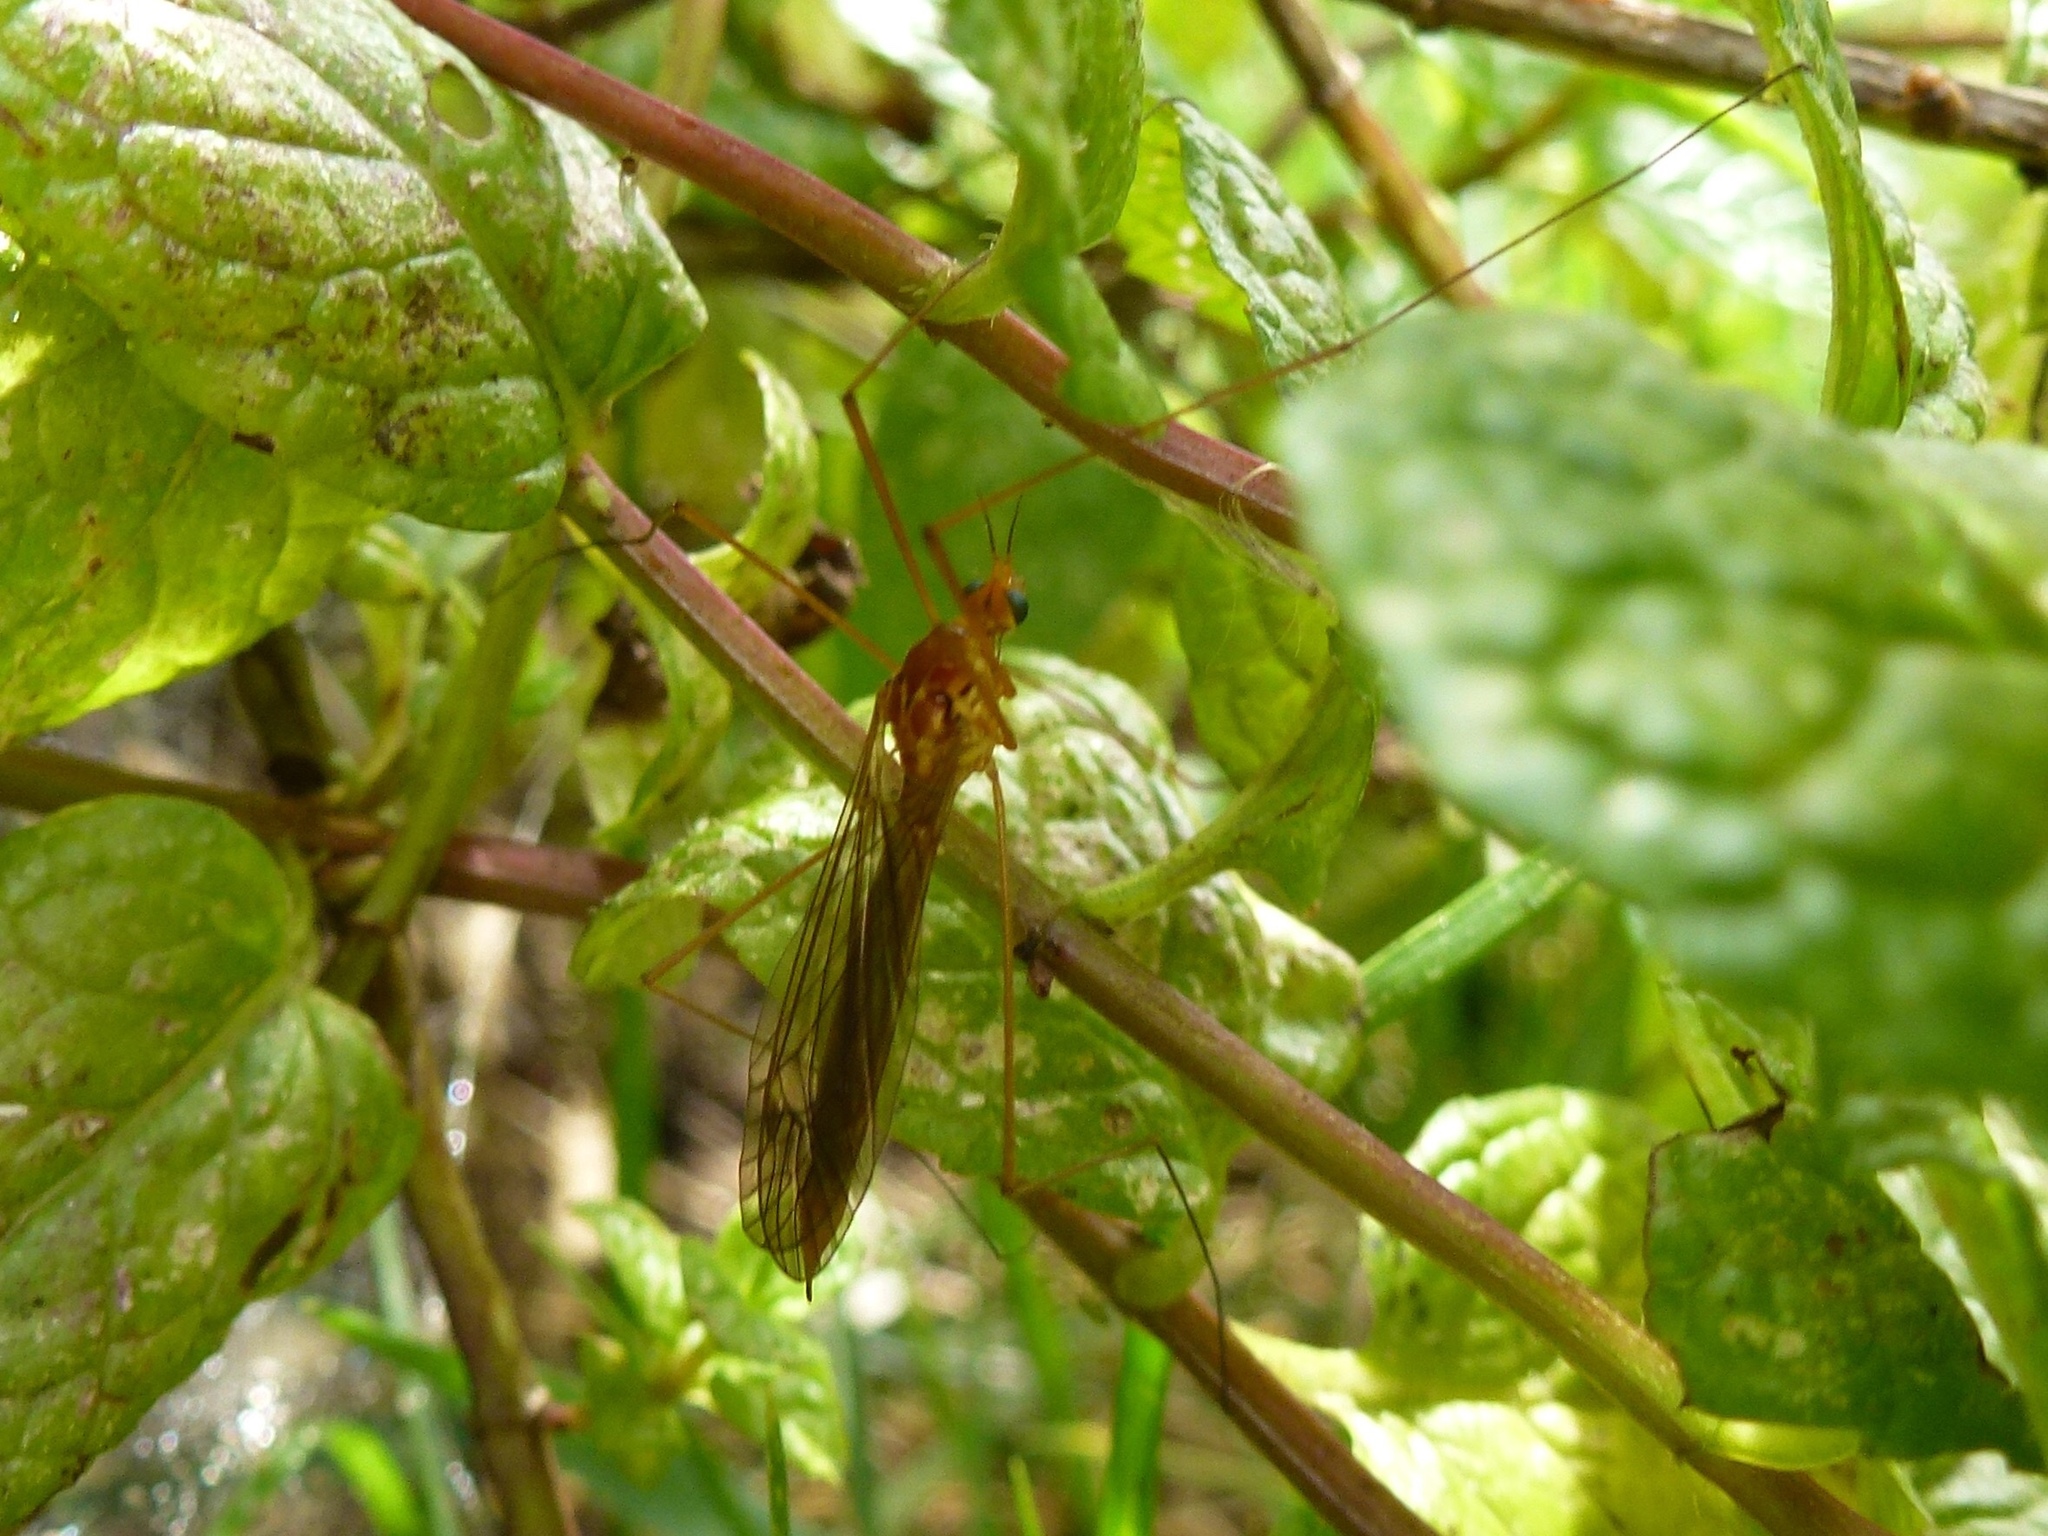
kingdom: Animalia
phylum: Arthropoda
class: Insecta
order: Diptera
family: Tipulidae
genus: Nephrotoma
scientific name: Nephrotoma
